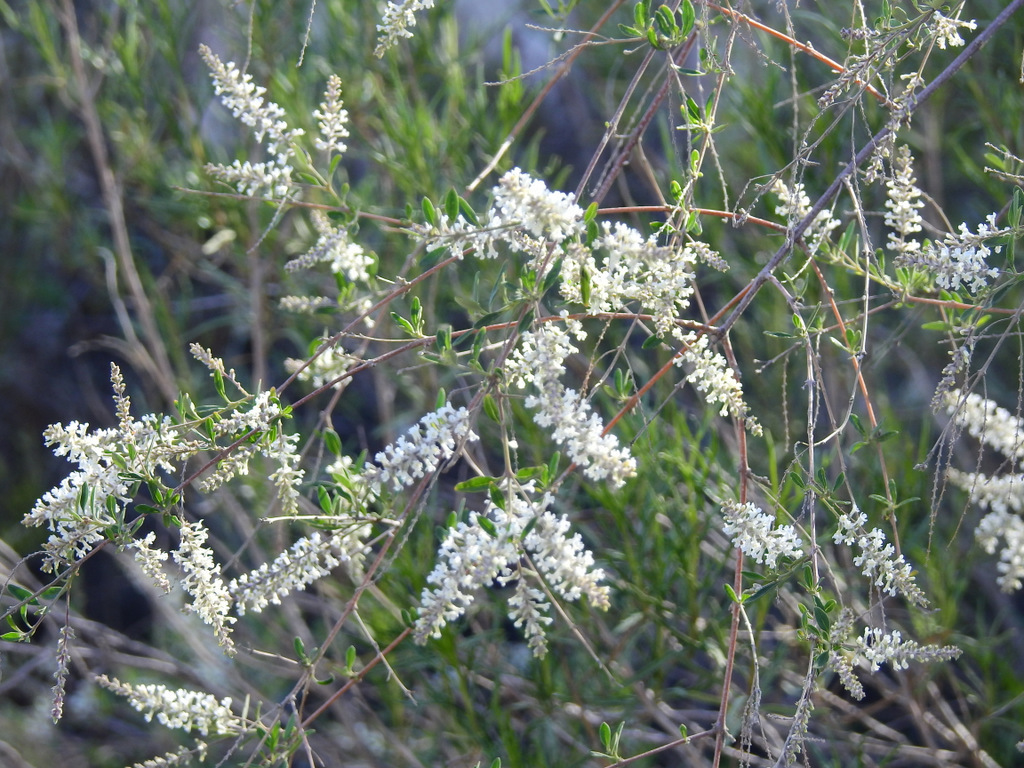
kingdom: Plantae
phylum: Tracheophyta
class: Magnoliopsida
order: Lamiales
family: Verbenaceae
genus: Aloysia
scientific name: Aloysia gratissima
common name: Common bee-brush
